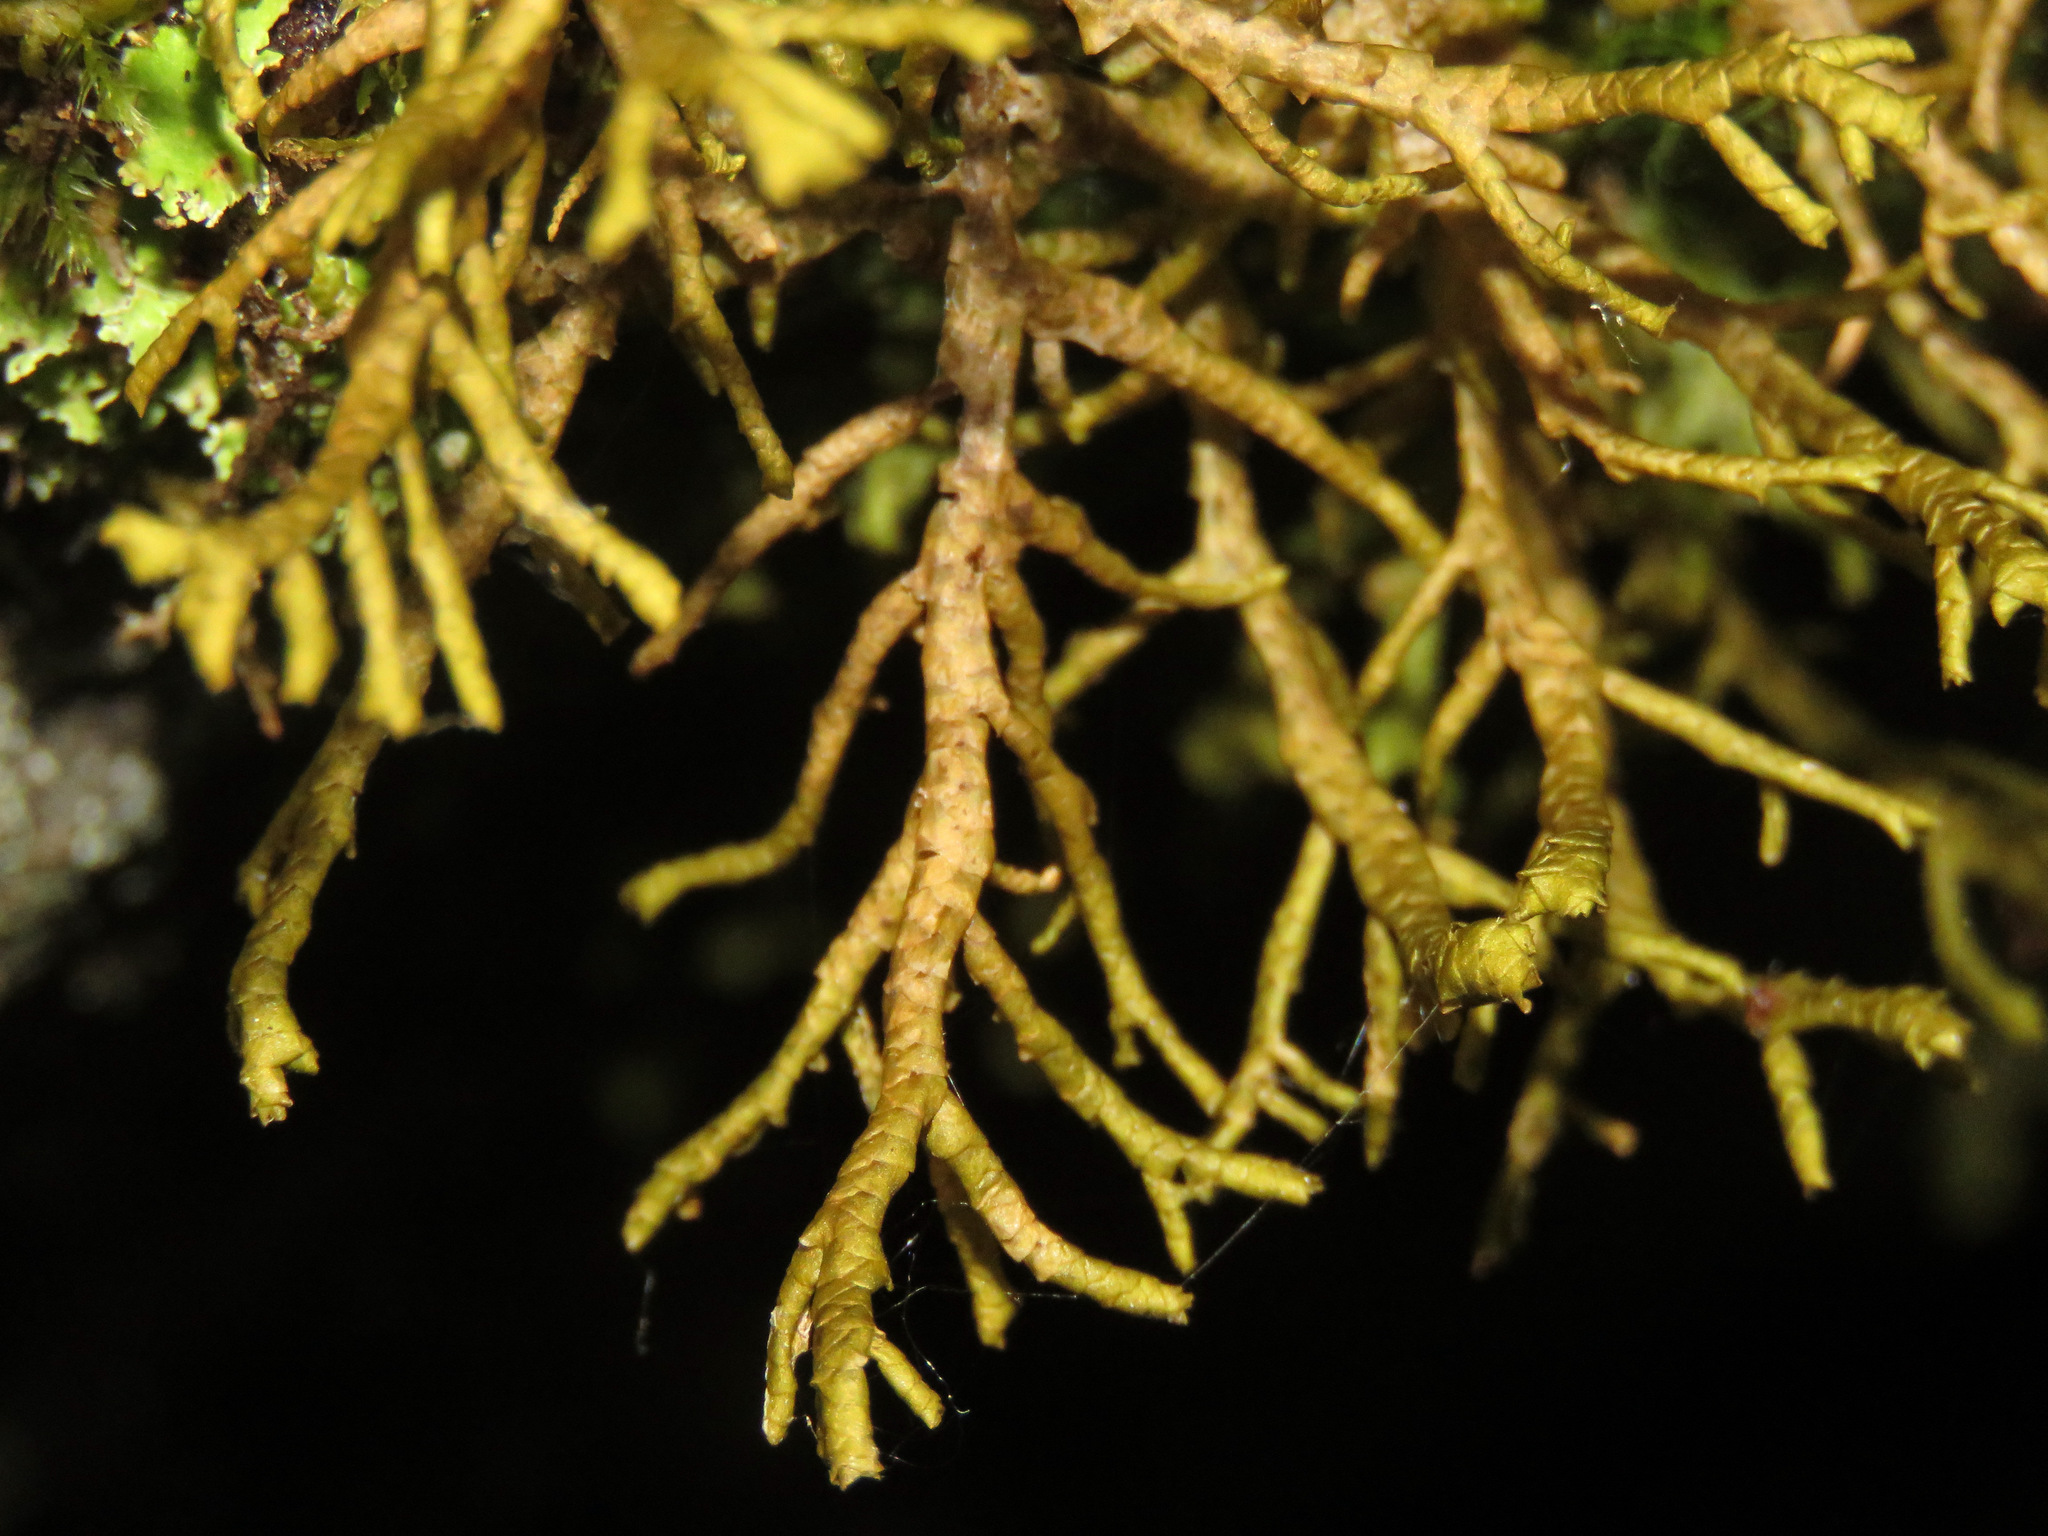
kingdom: Plantae
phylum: Marchantiophyta
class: Jungermanniopsida
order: Porellales
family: Porellaceae
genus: Porella
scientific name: Porella navicularis
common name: Tree ruffle liverwort
